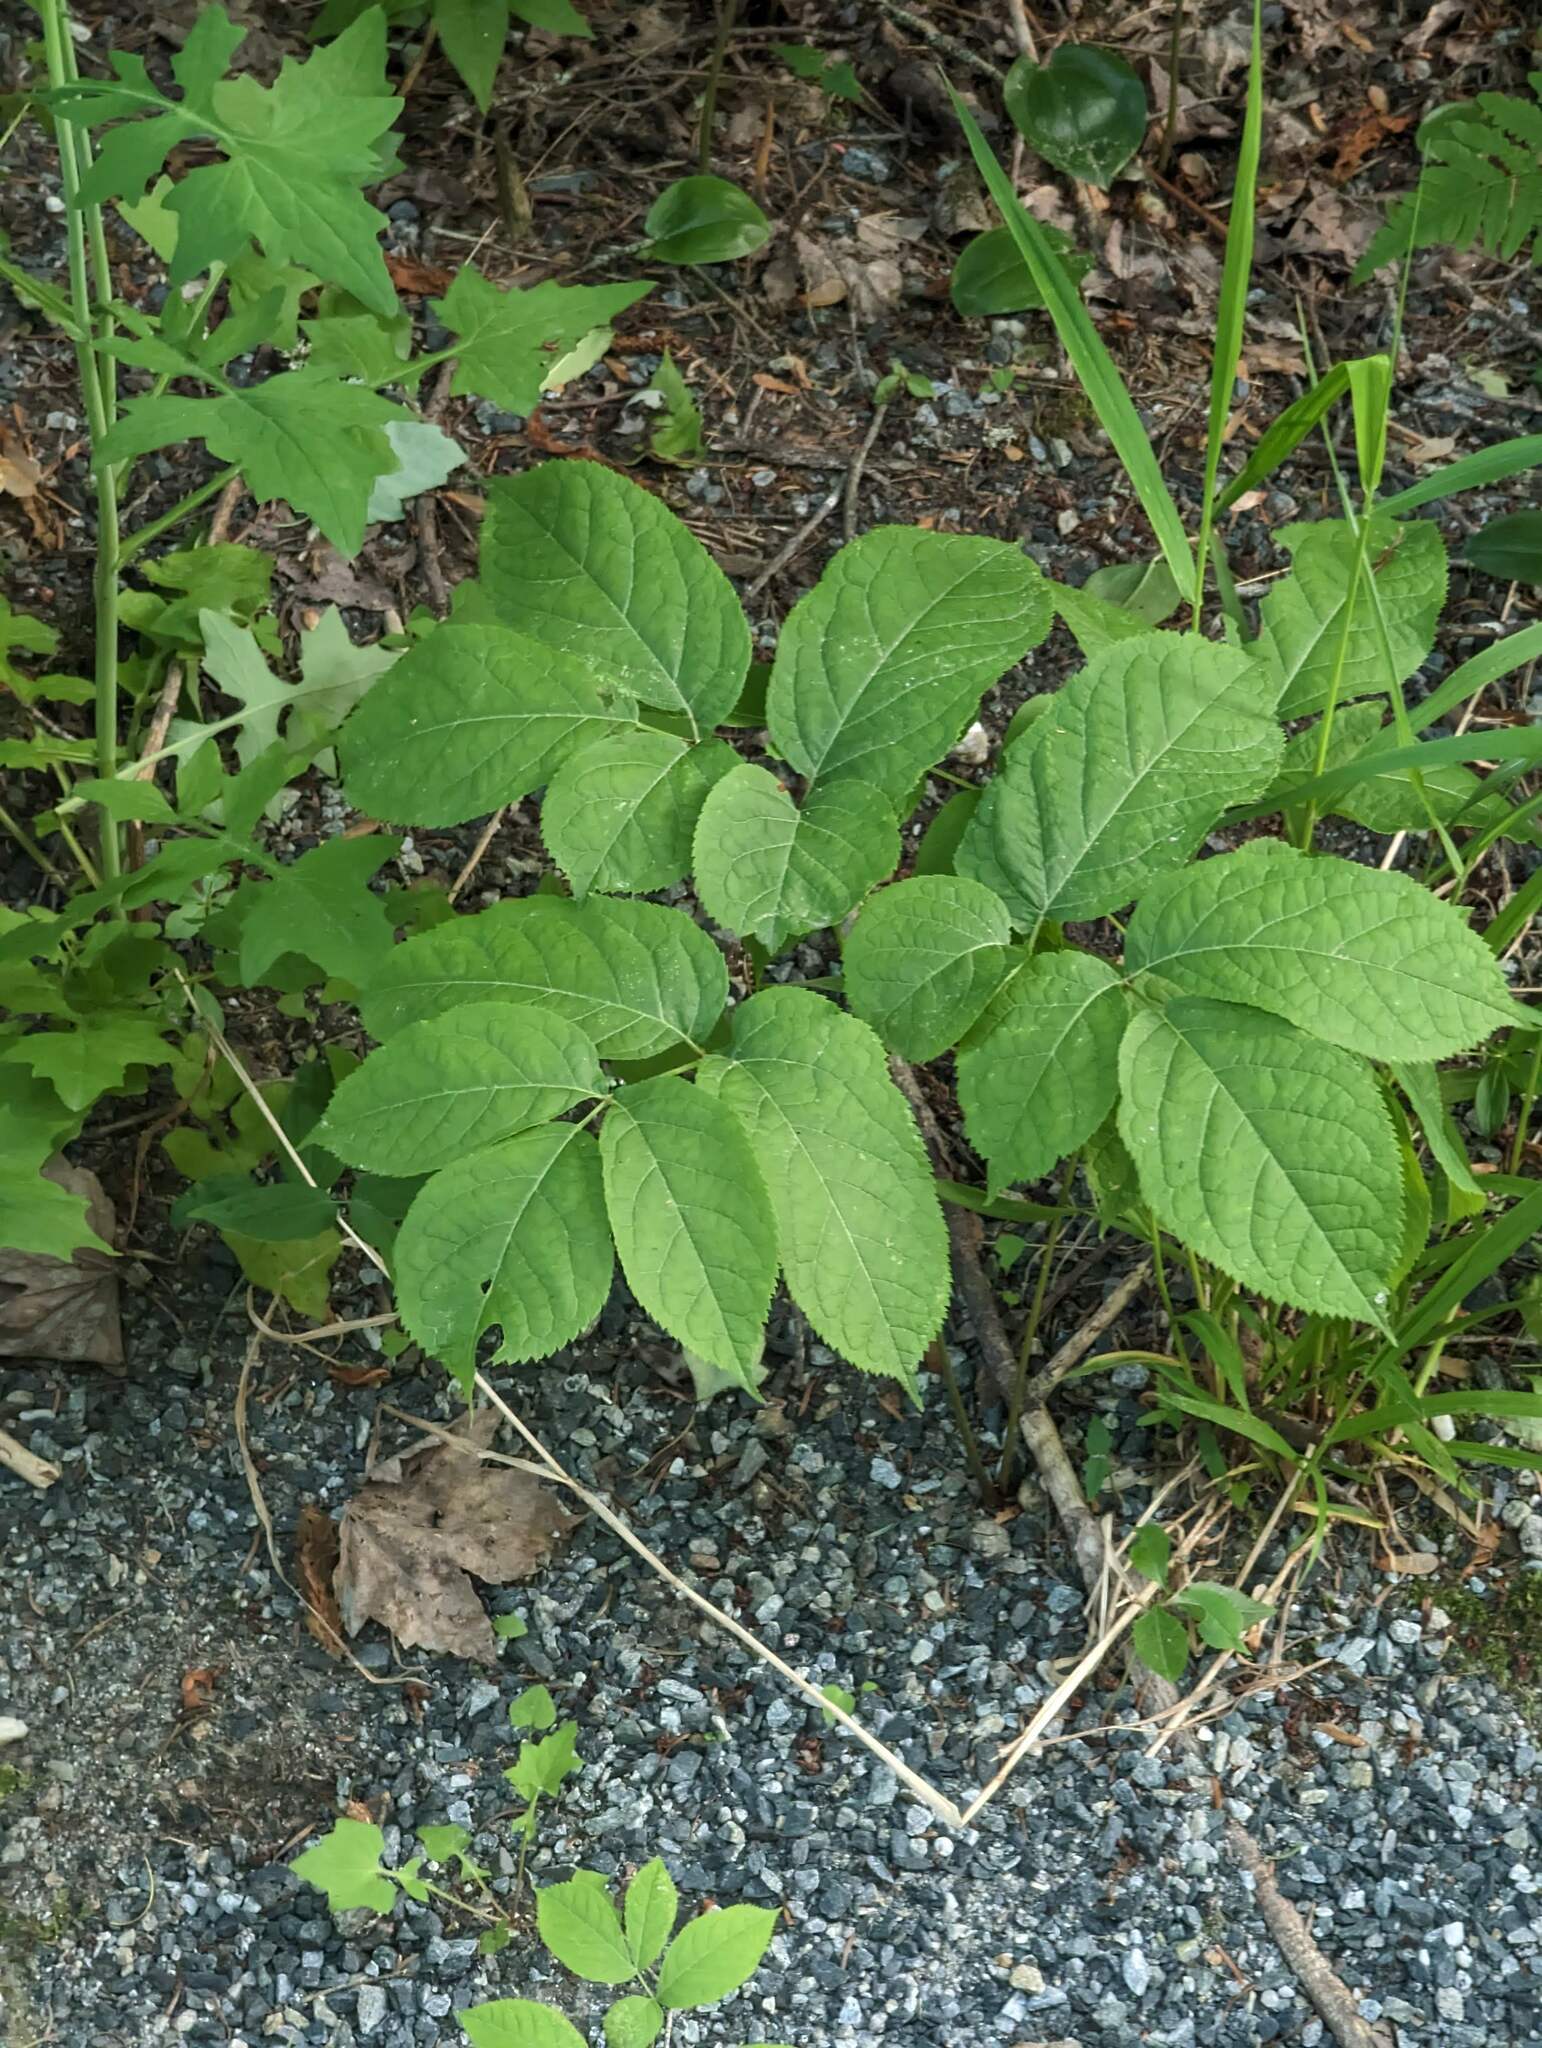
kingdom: Plantae
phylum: Tracheophyta
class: Magnoliopsida
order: Apiales
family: Araliaceae
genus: Aralia
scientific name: Aralia nudicaulis
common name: Wild sarsaparilla
